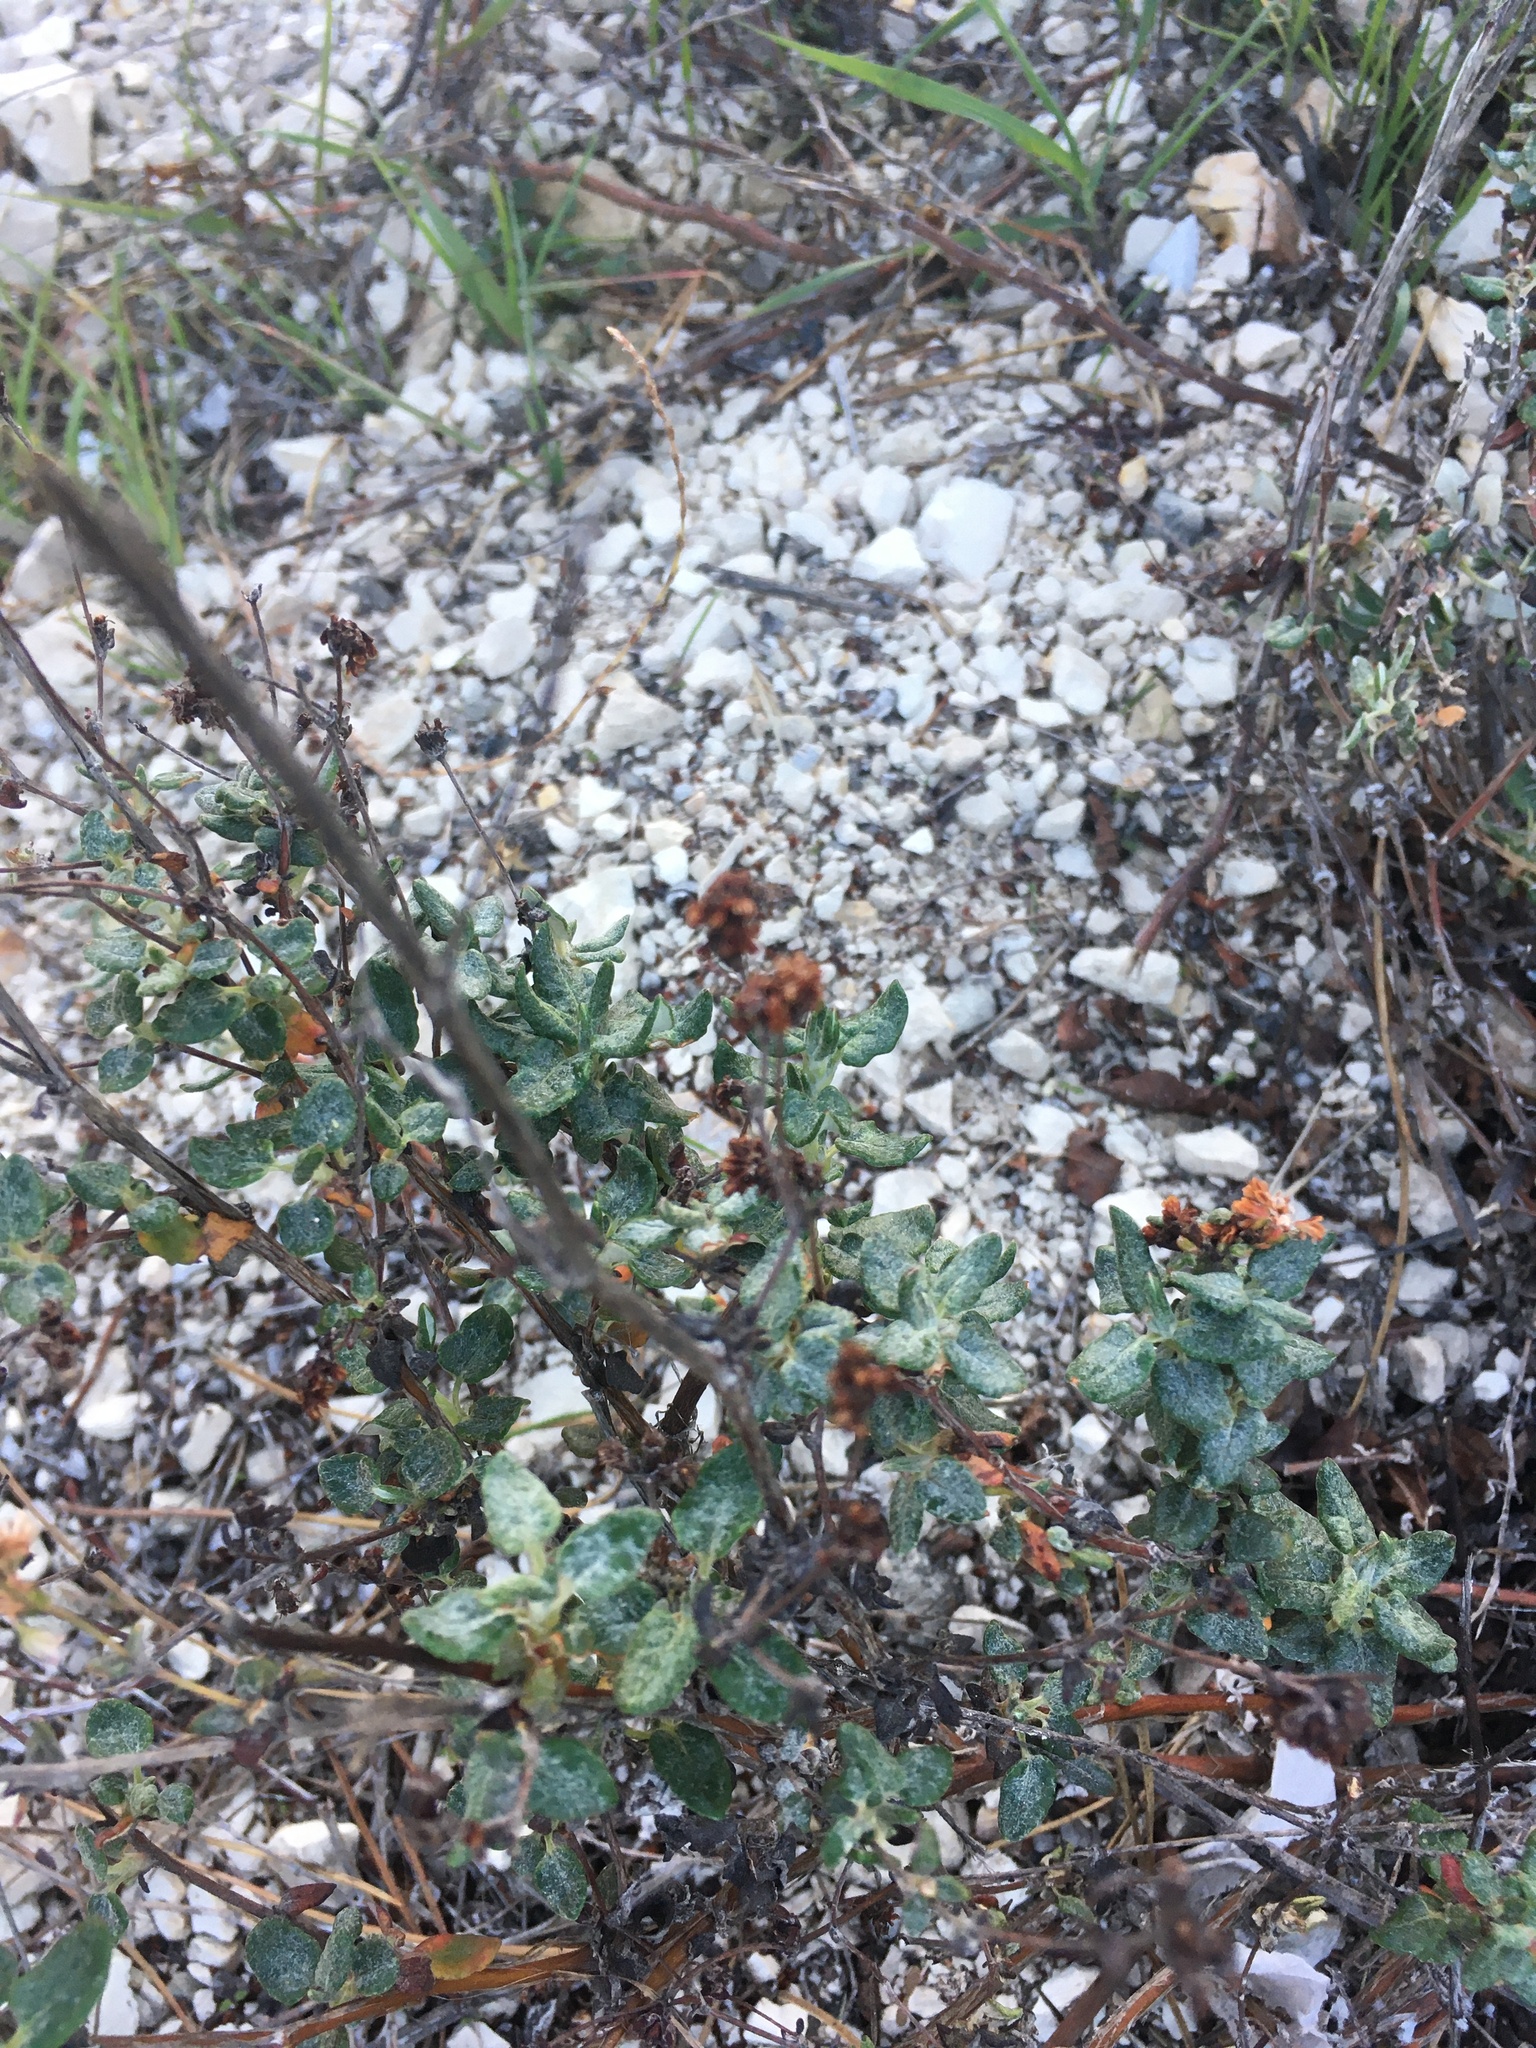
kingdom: Plantae
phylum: Tracheophyta
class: Magnoliopsida
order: Caryophyllales
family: Polygonaceae
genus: Eriogonum
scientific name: Eriogonum parvifolium
